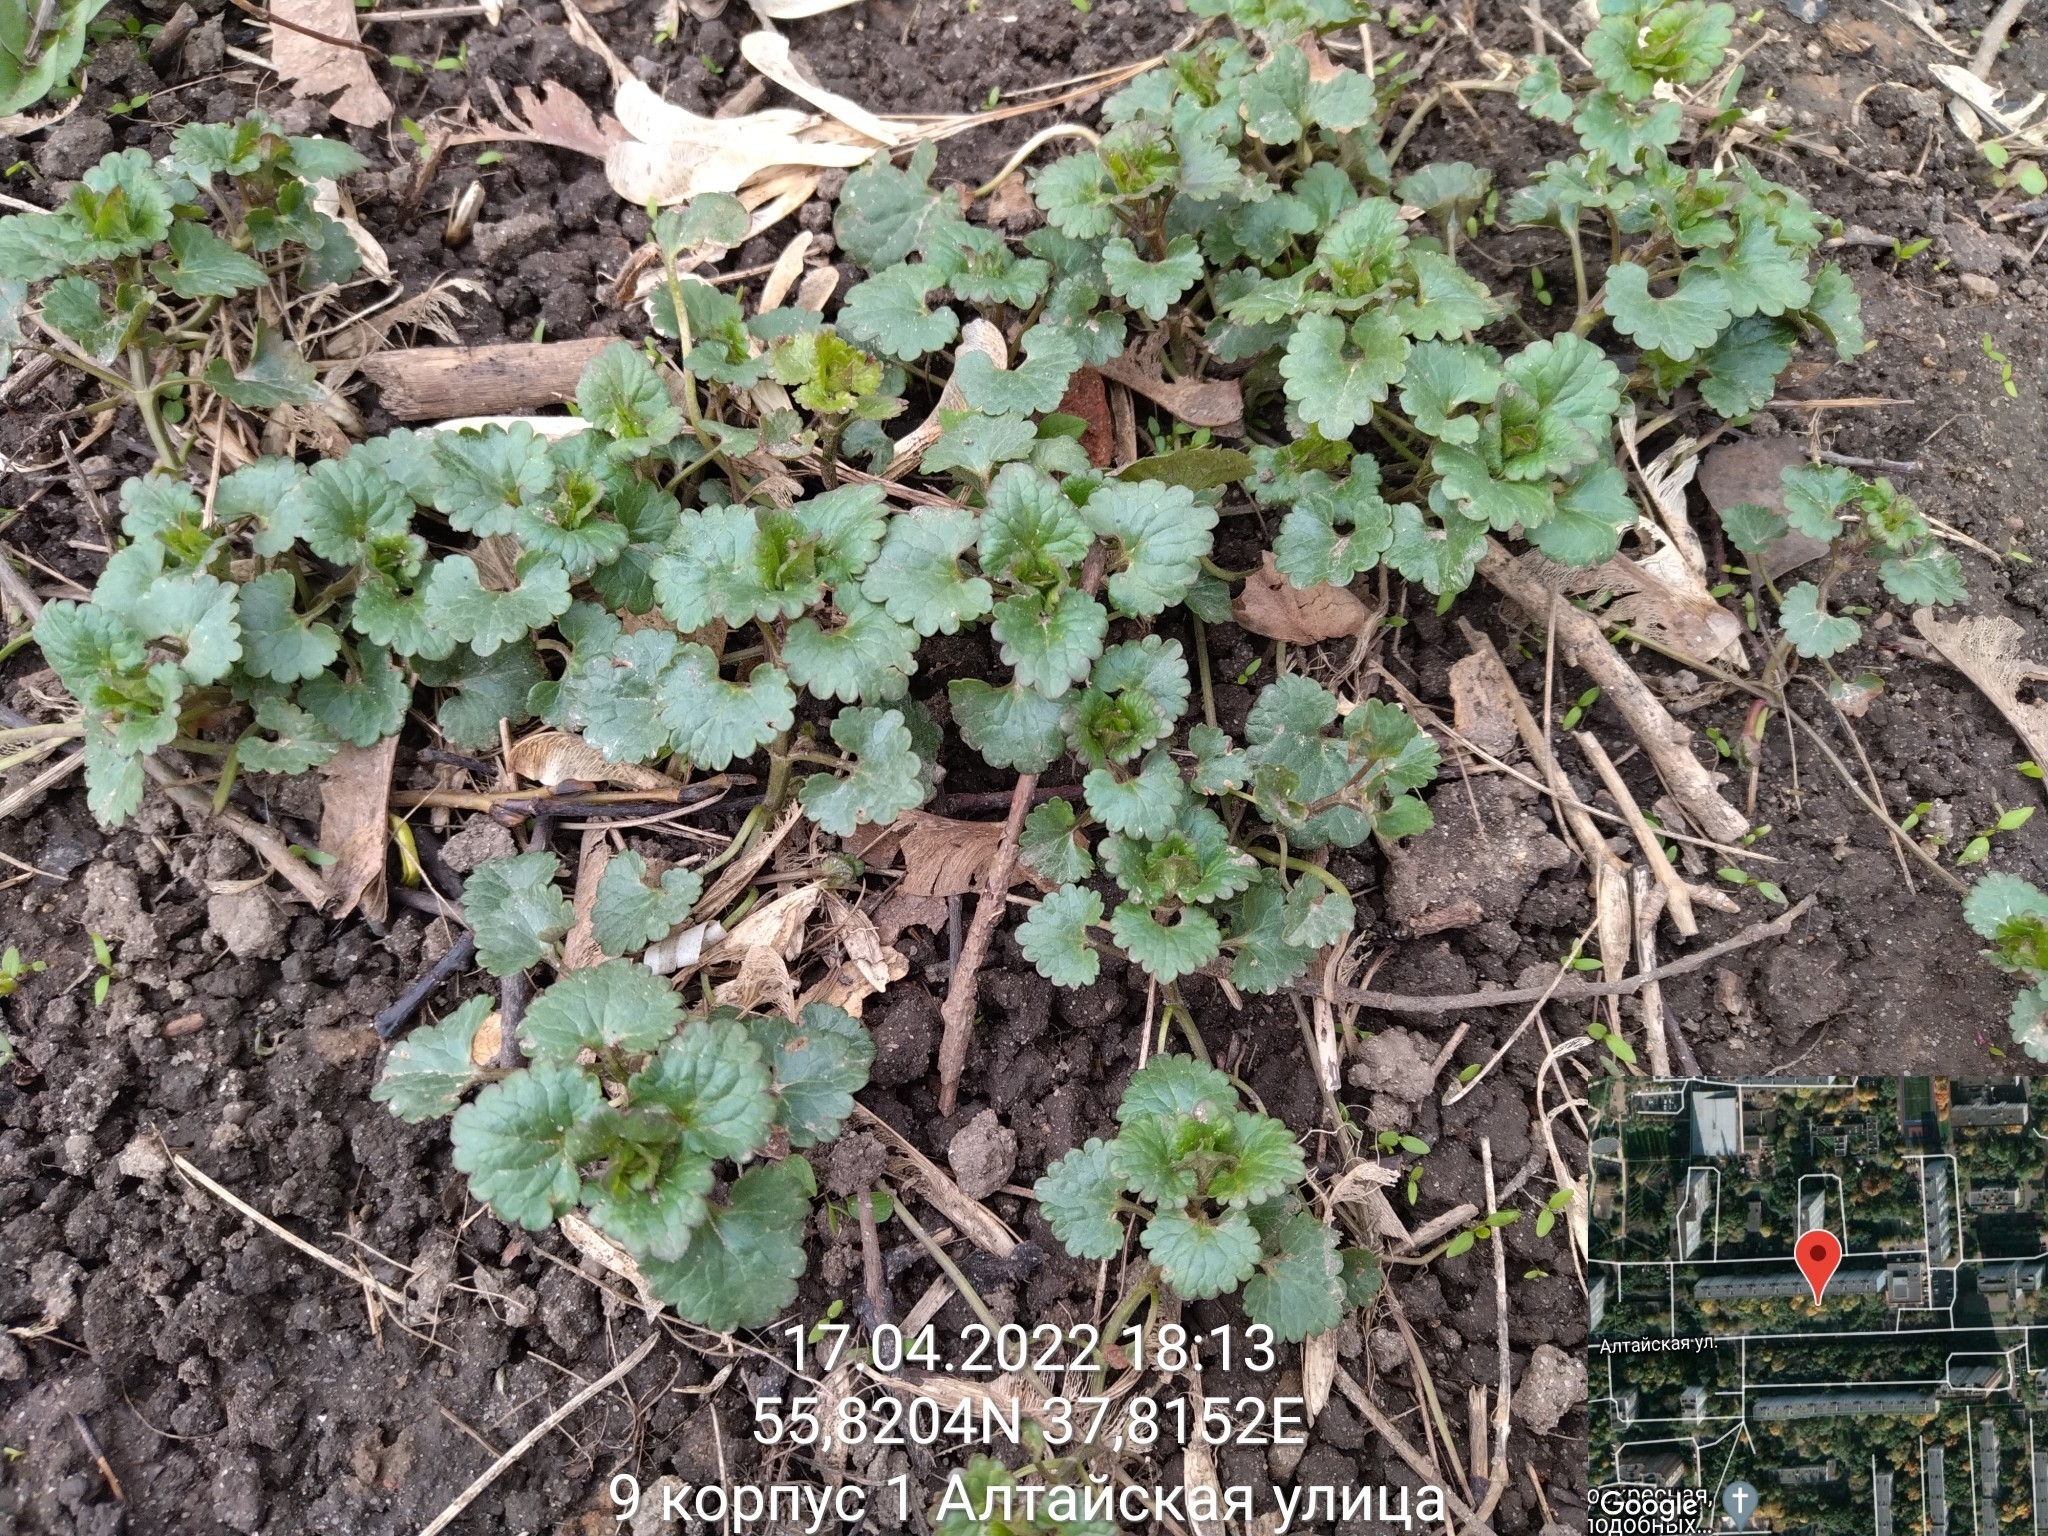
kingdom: Plantae
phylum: Tracheophyta
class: Magnoliopsida
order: Lamiales
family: Lamiaceae
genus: Glechoma
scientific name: Glechoma hederacea
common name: Ground ivy
